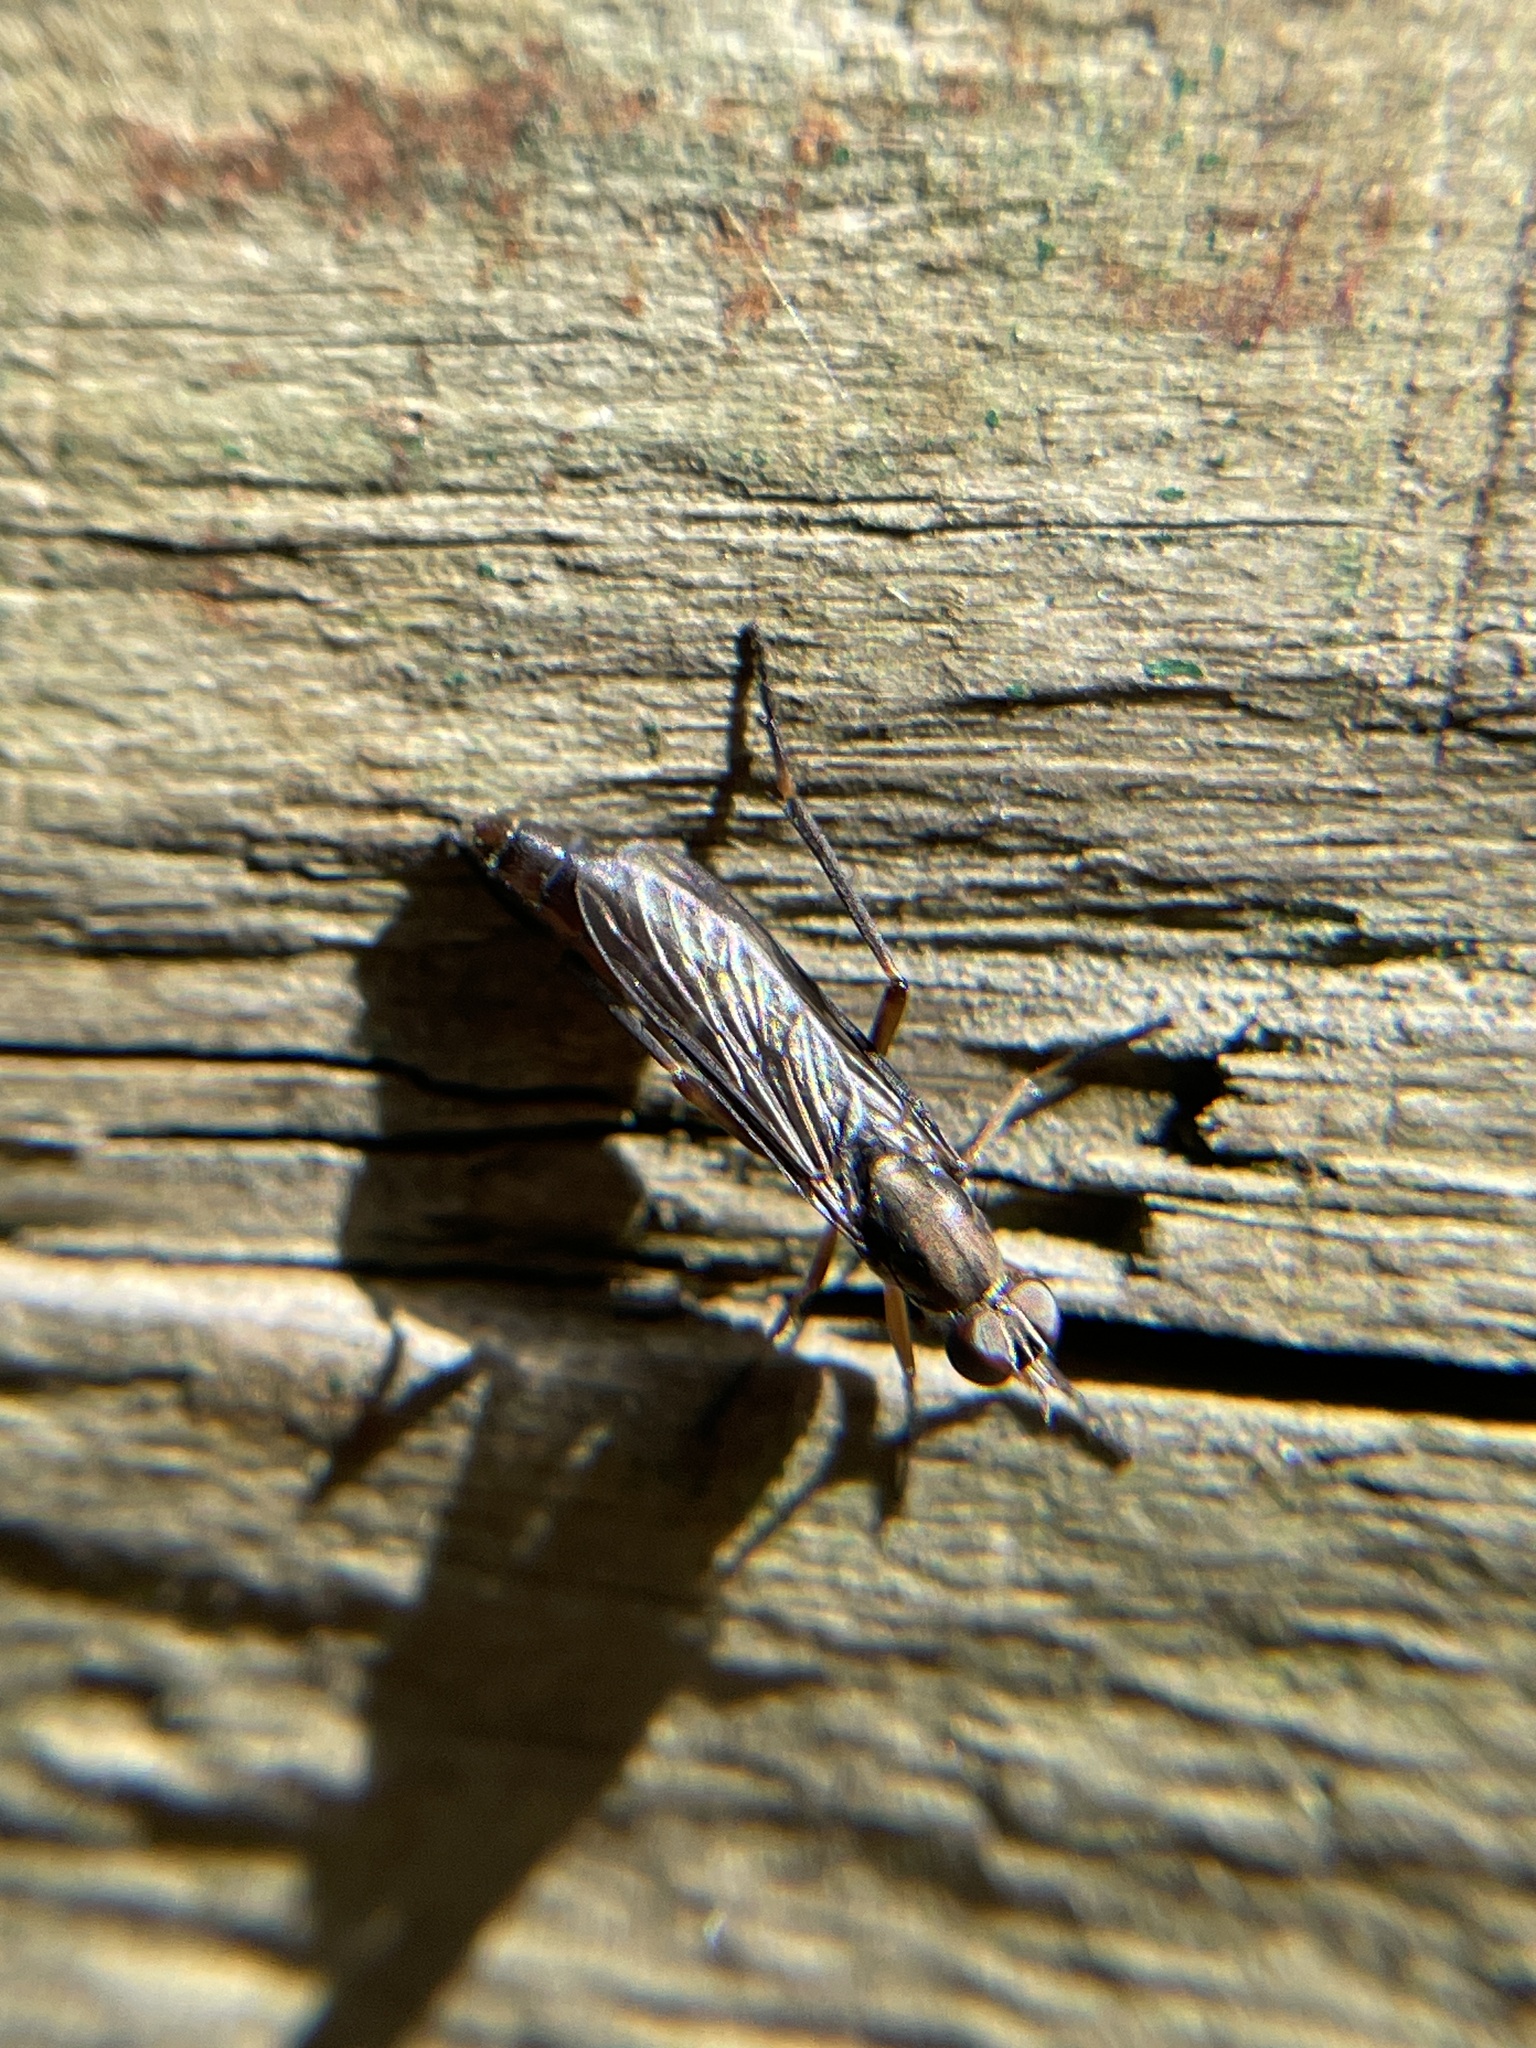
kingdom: Animalia
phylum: Arthropoda
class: Insecta
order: Diptera
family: Therevidae
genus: Taenogerella
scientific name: Taenogerella elizabethae
